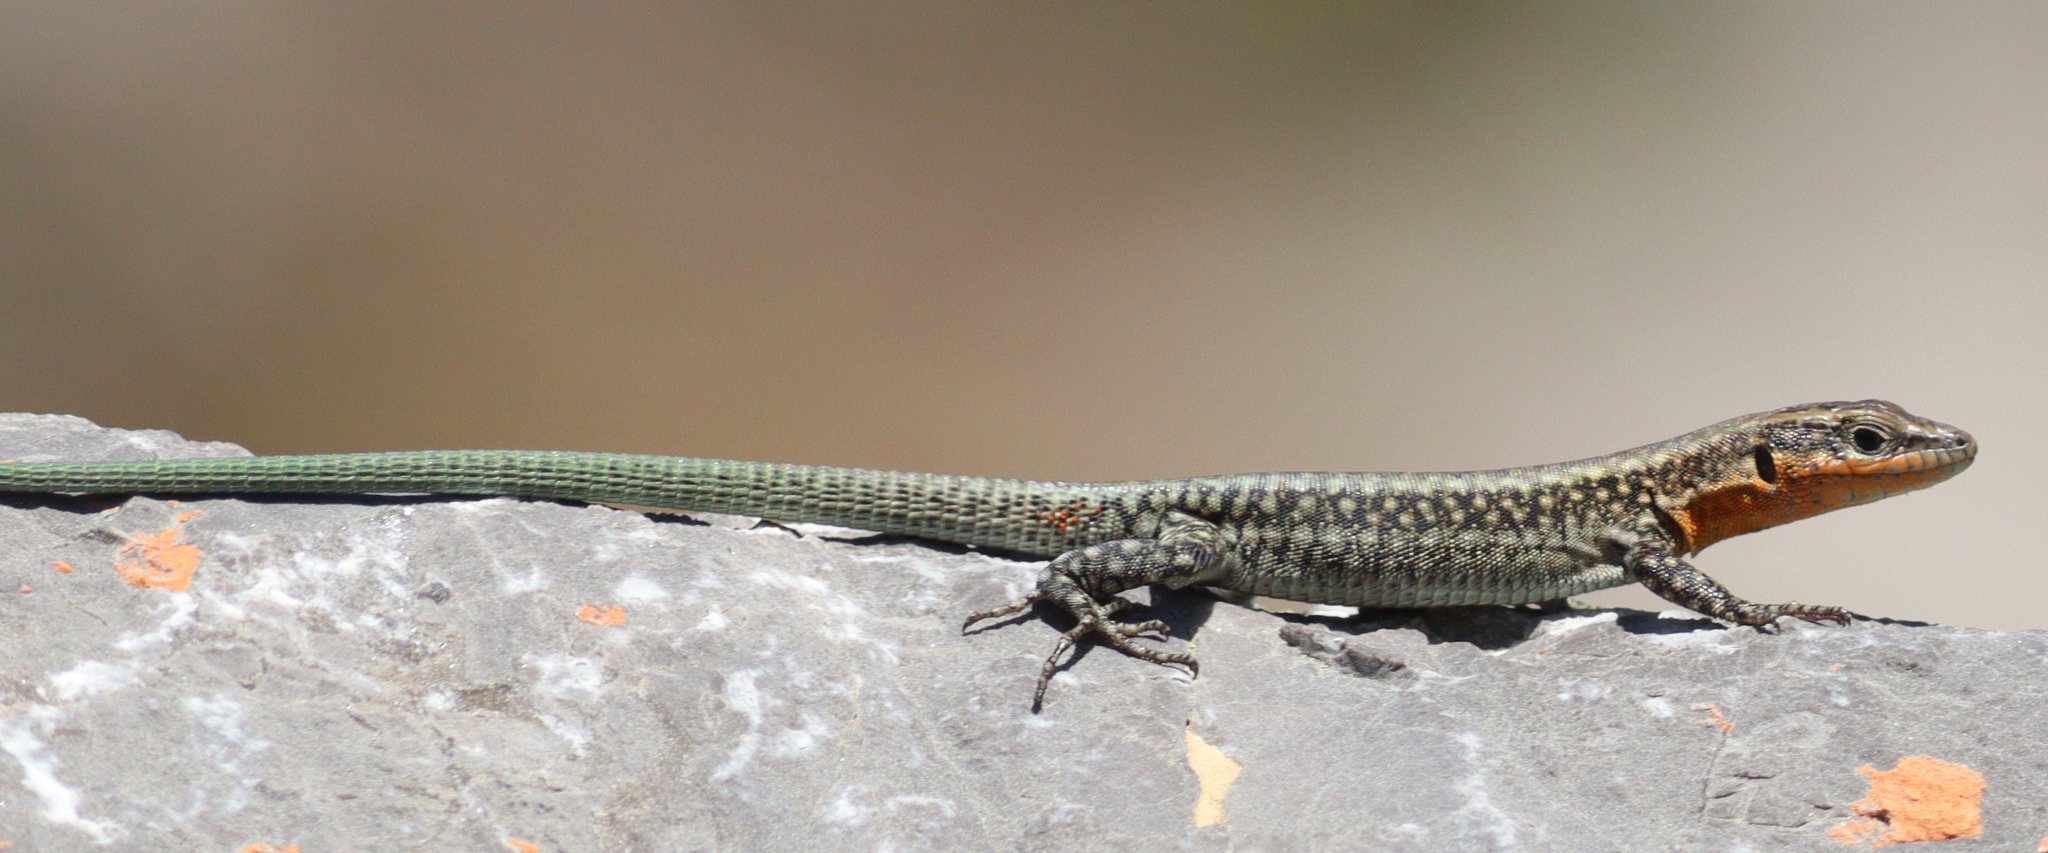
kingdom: Animalia
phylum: Chordata
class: Squamata
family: Lacertidae
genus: Anatololacerta
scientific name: Anatololacerta danfordi
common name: Danford's lizard
